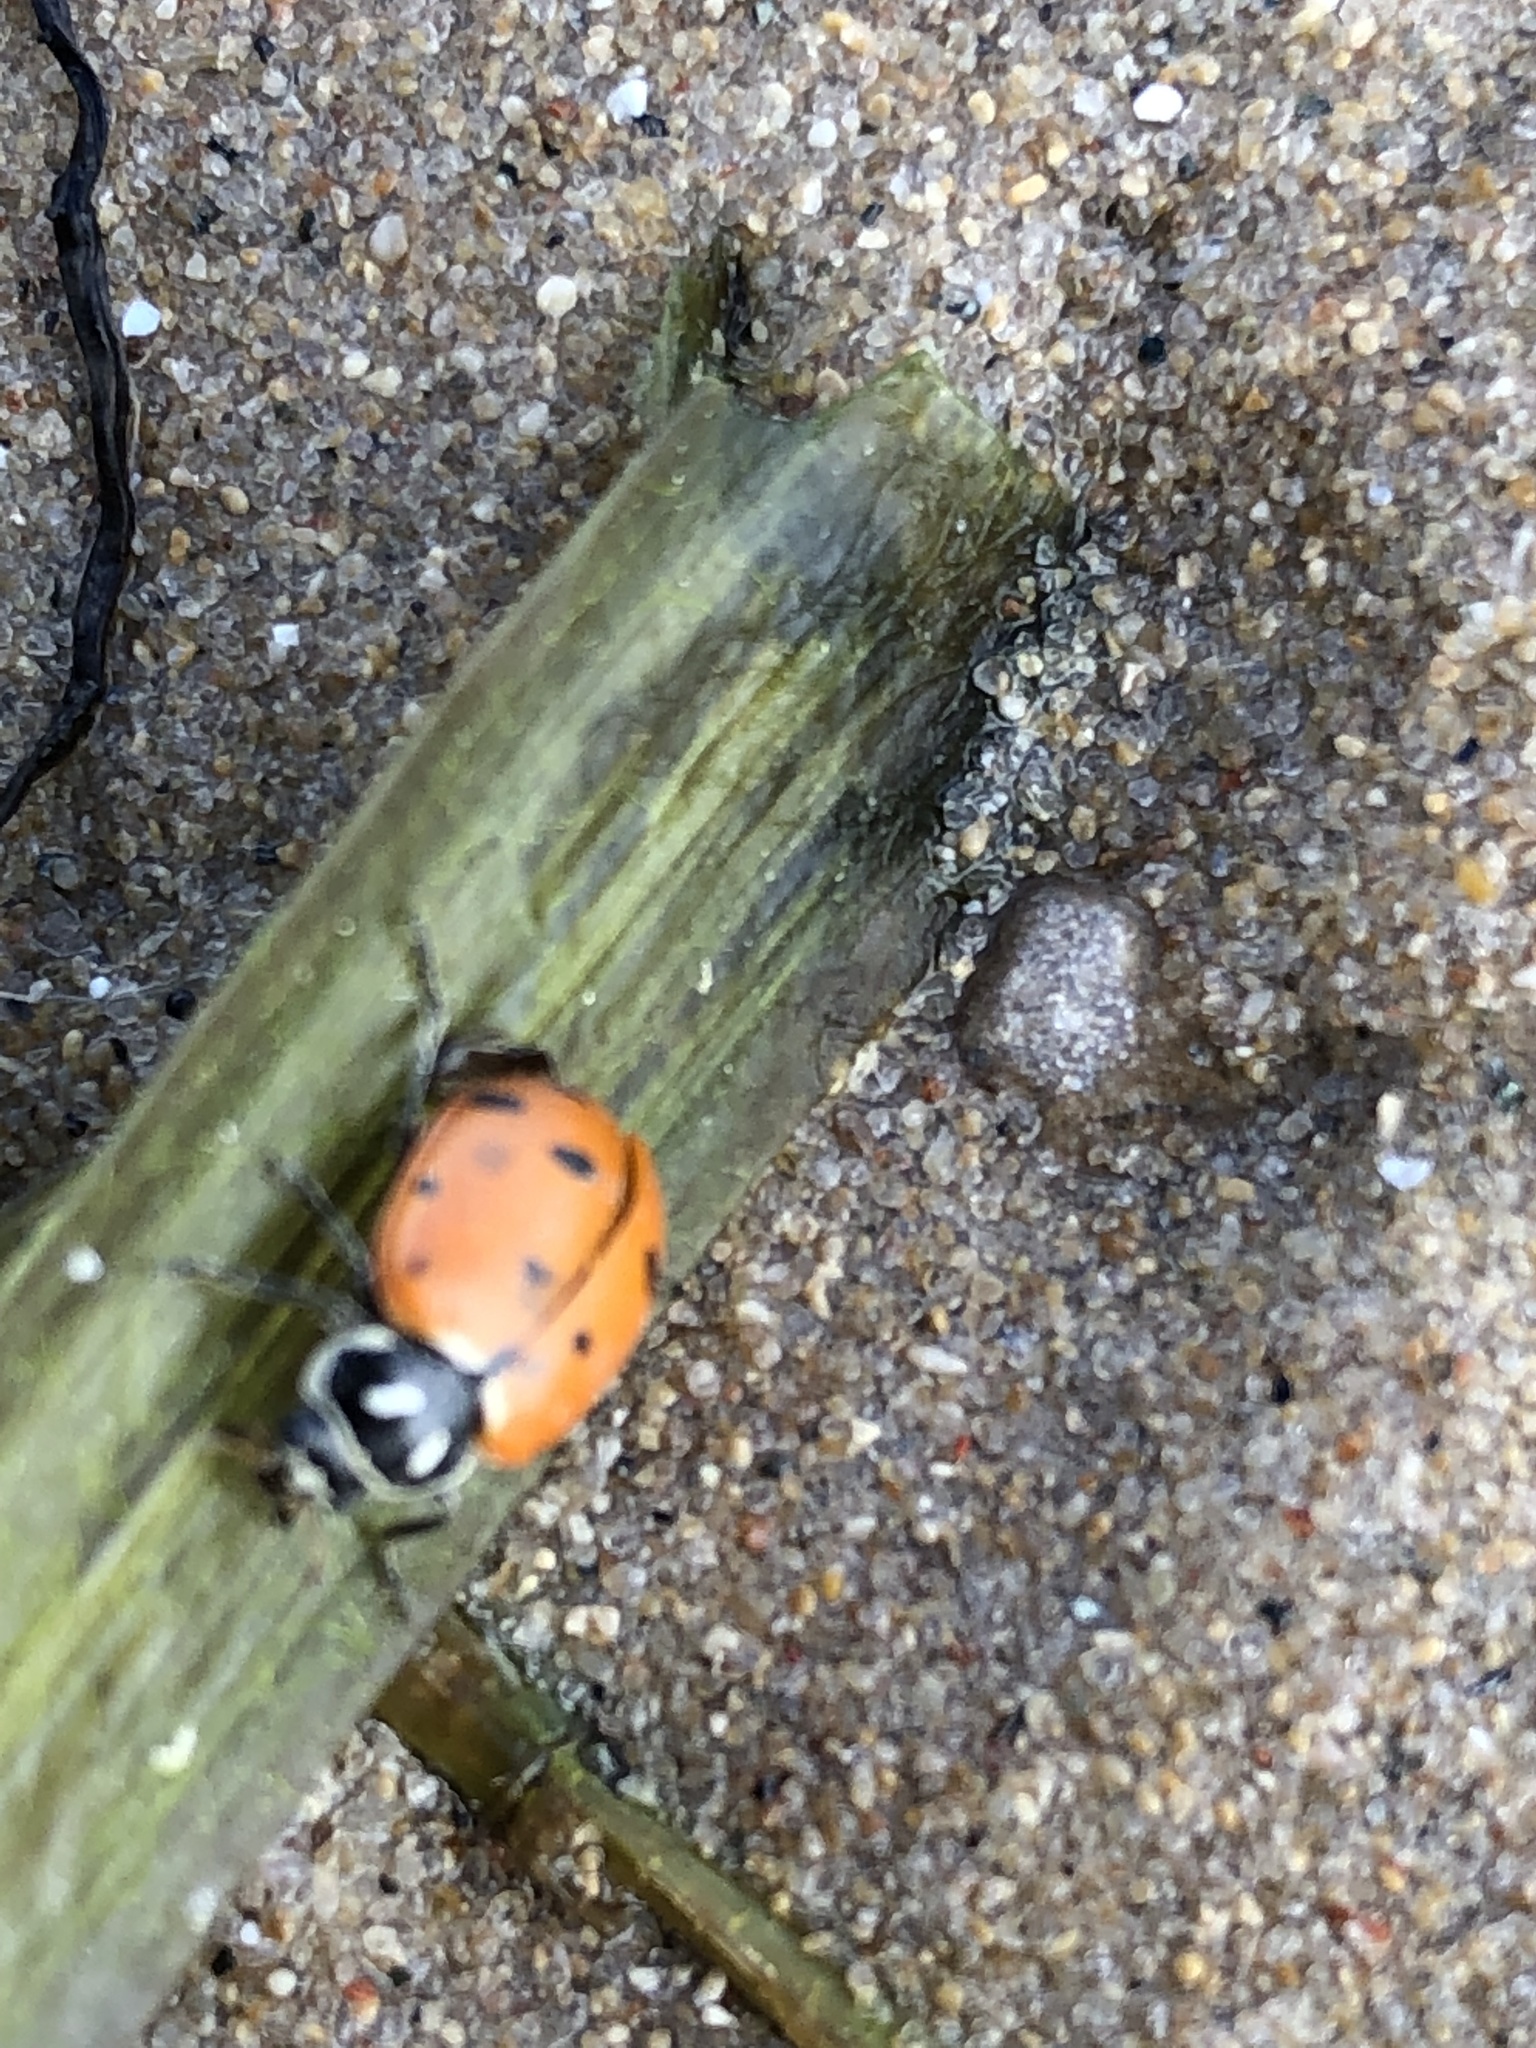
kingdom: Animalia
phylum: Arthropoda
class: Insecta
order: Coleoptera
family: Coccinellidae
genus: Hippodamia
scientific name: Hippodamia convergens
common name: Convergent lady beetle
